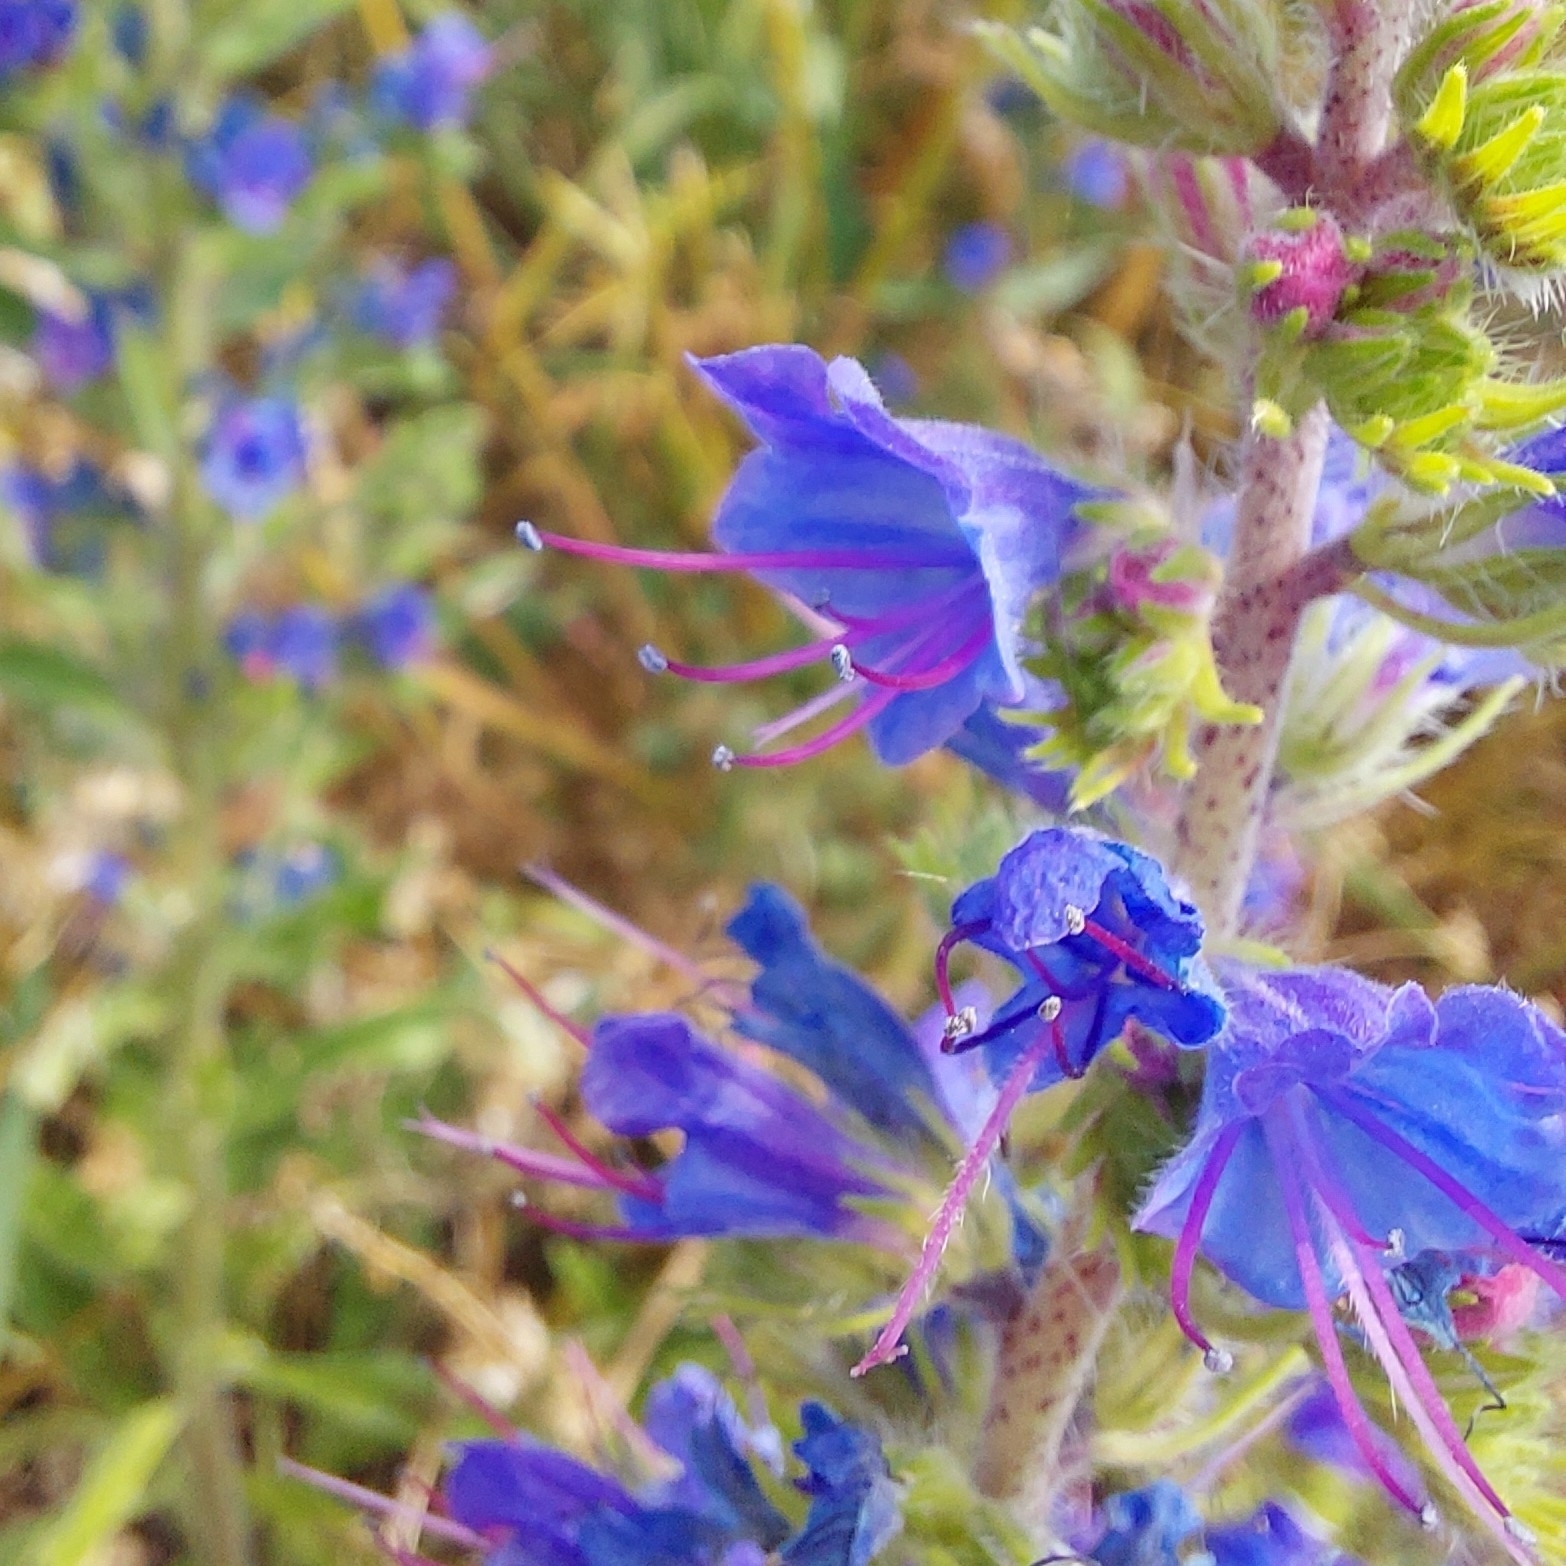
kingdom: Plantae
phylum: Tracheophyta
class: Magnoliopsida
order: Boraginales
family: Boraginaceae
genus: Echium
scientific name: Echium vulgare
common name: Common viper's bugloss
